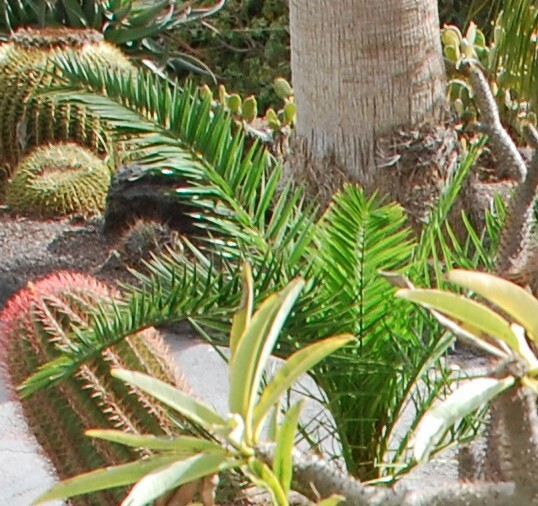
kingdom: Plantae
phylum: Tracheophyta
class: Liliopsida
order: Arecales
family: Arecaceae
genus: Phoenix
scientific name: Phoenix canariensis
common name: Canary island date palm
